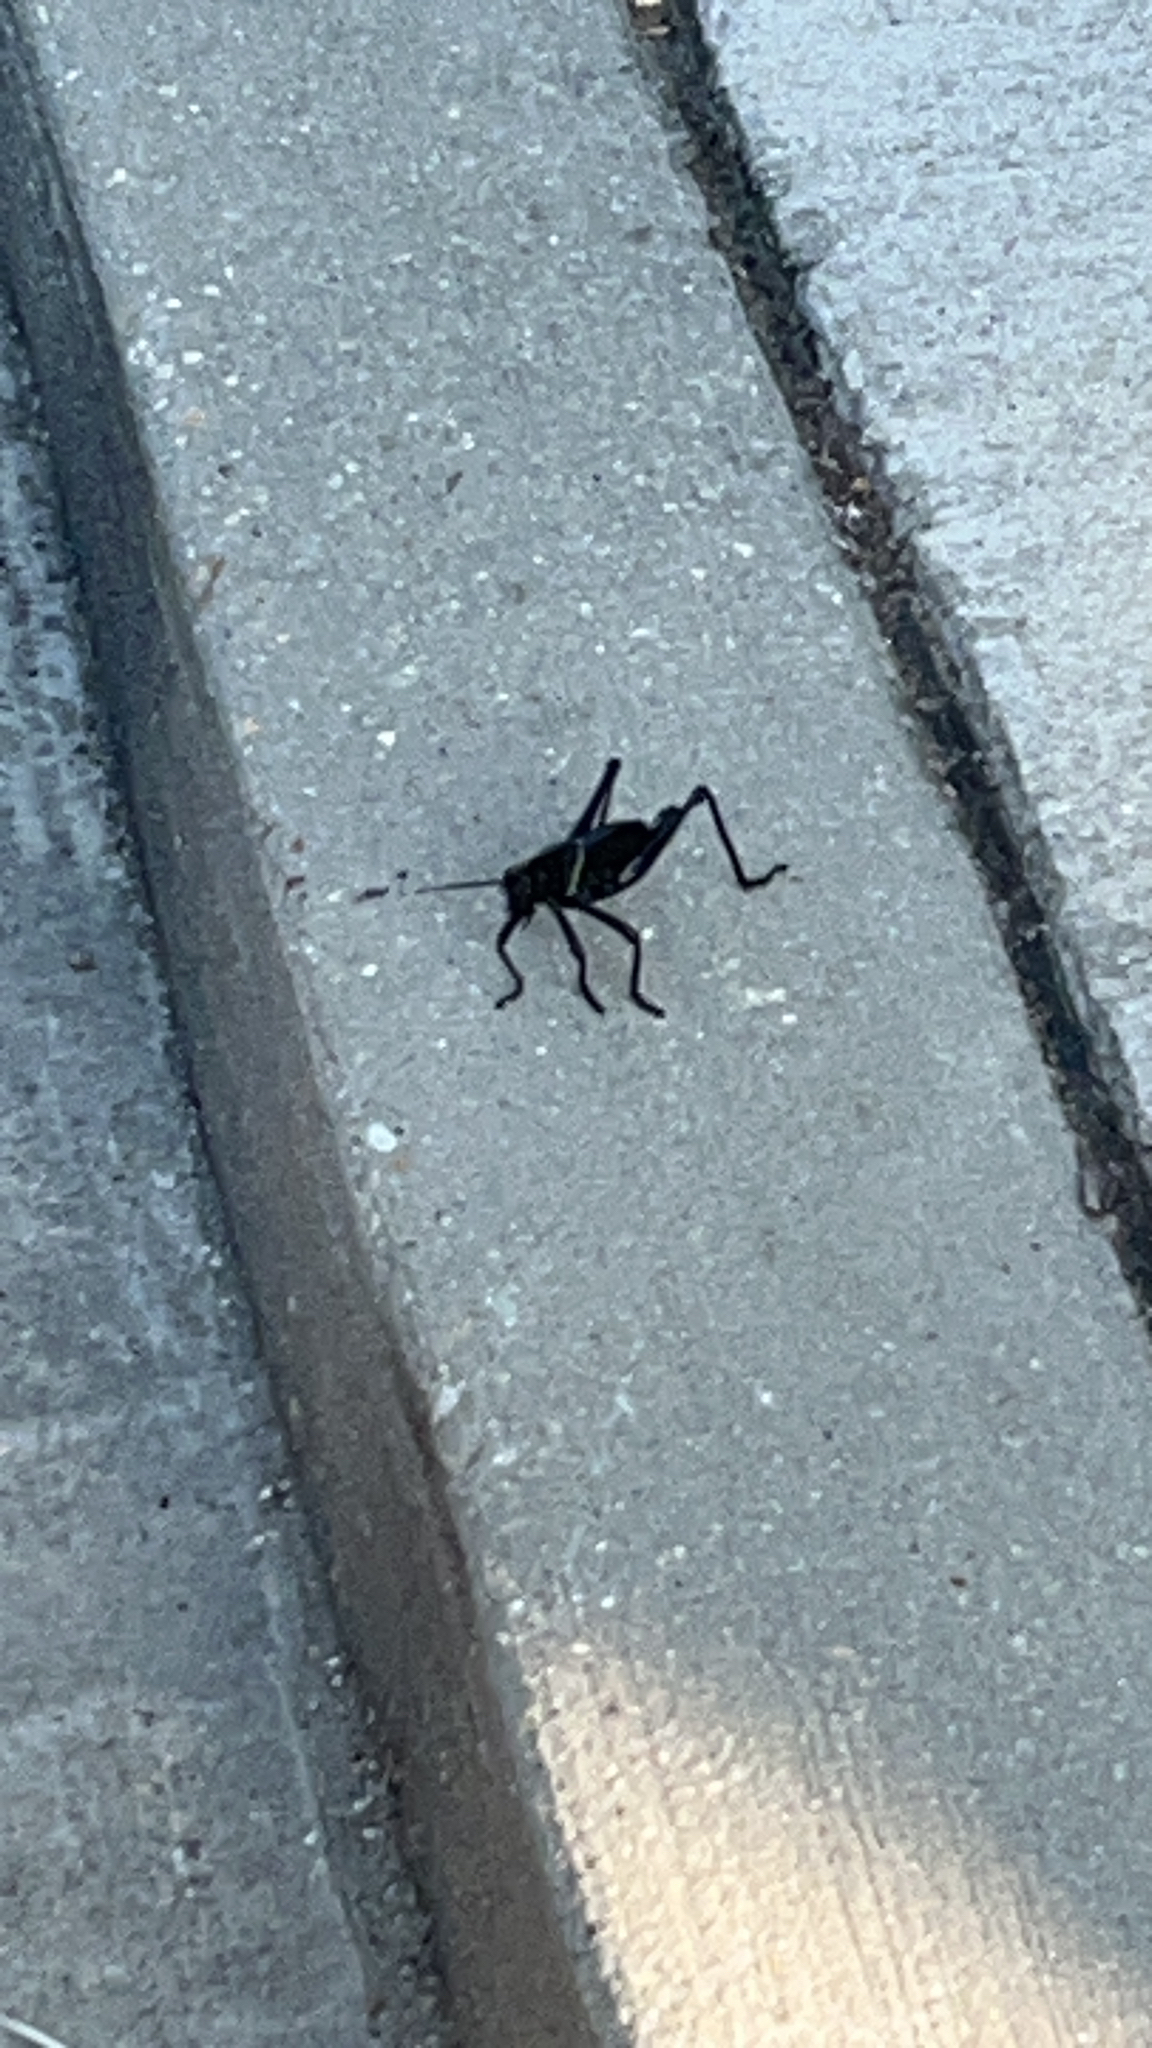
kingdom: Animalia
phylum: Arthropoda
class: Insecta
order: Orthoptera
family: Romaleidae
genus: Romalea
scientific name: Romalea microptera
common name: Eastern lubber grasshopper
